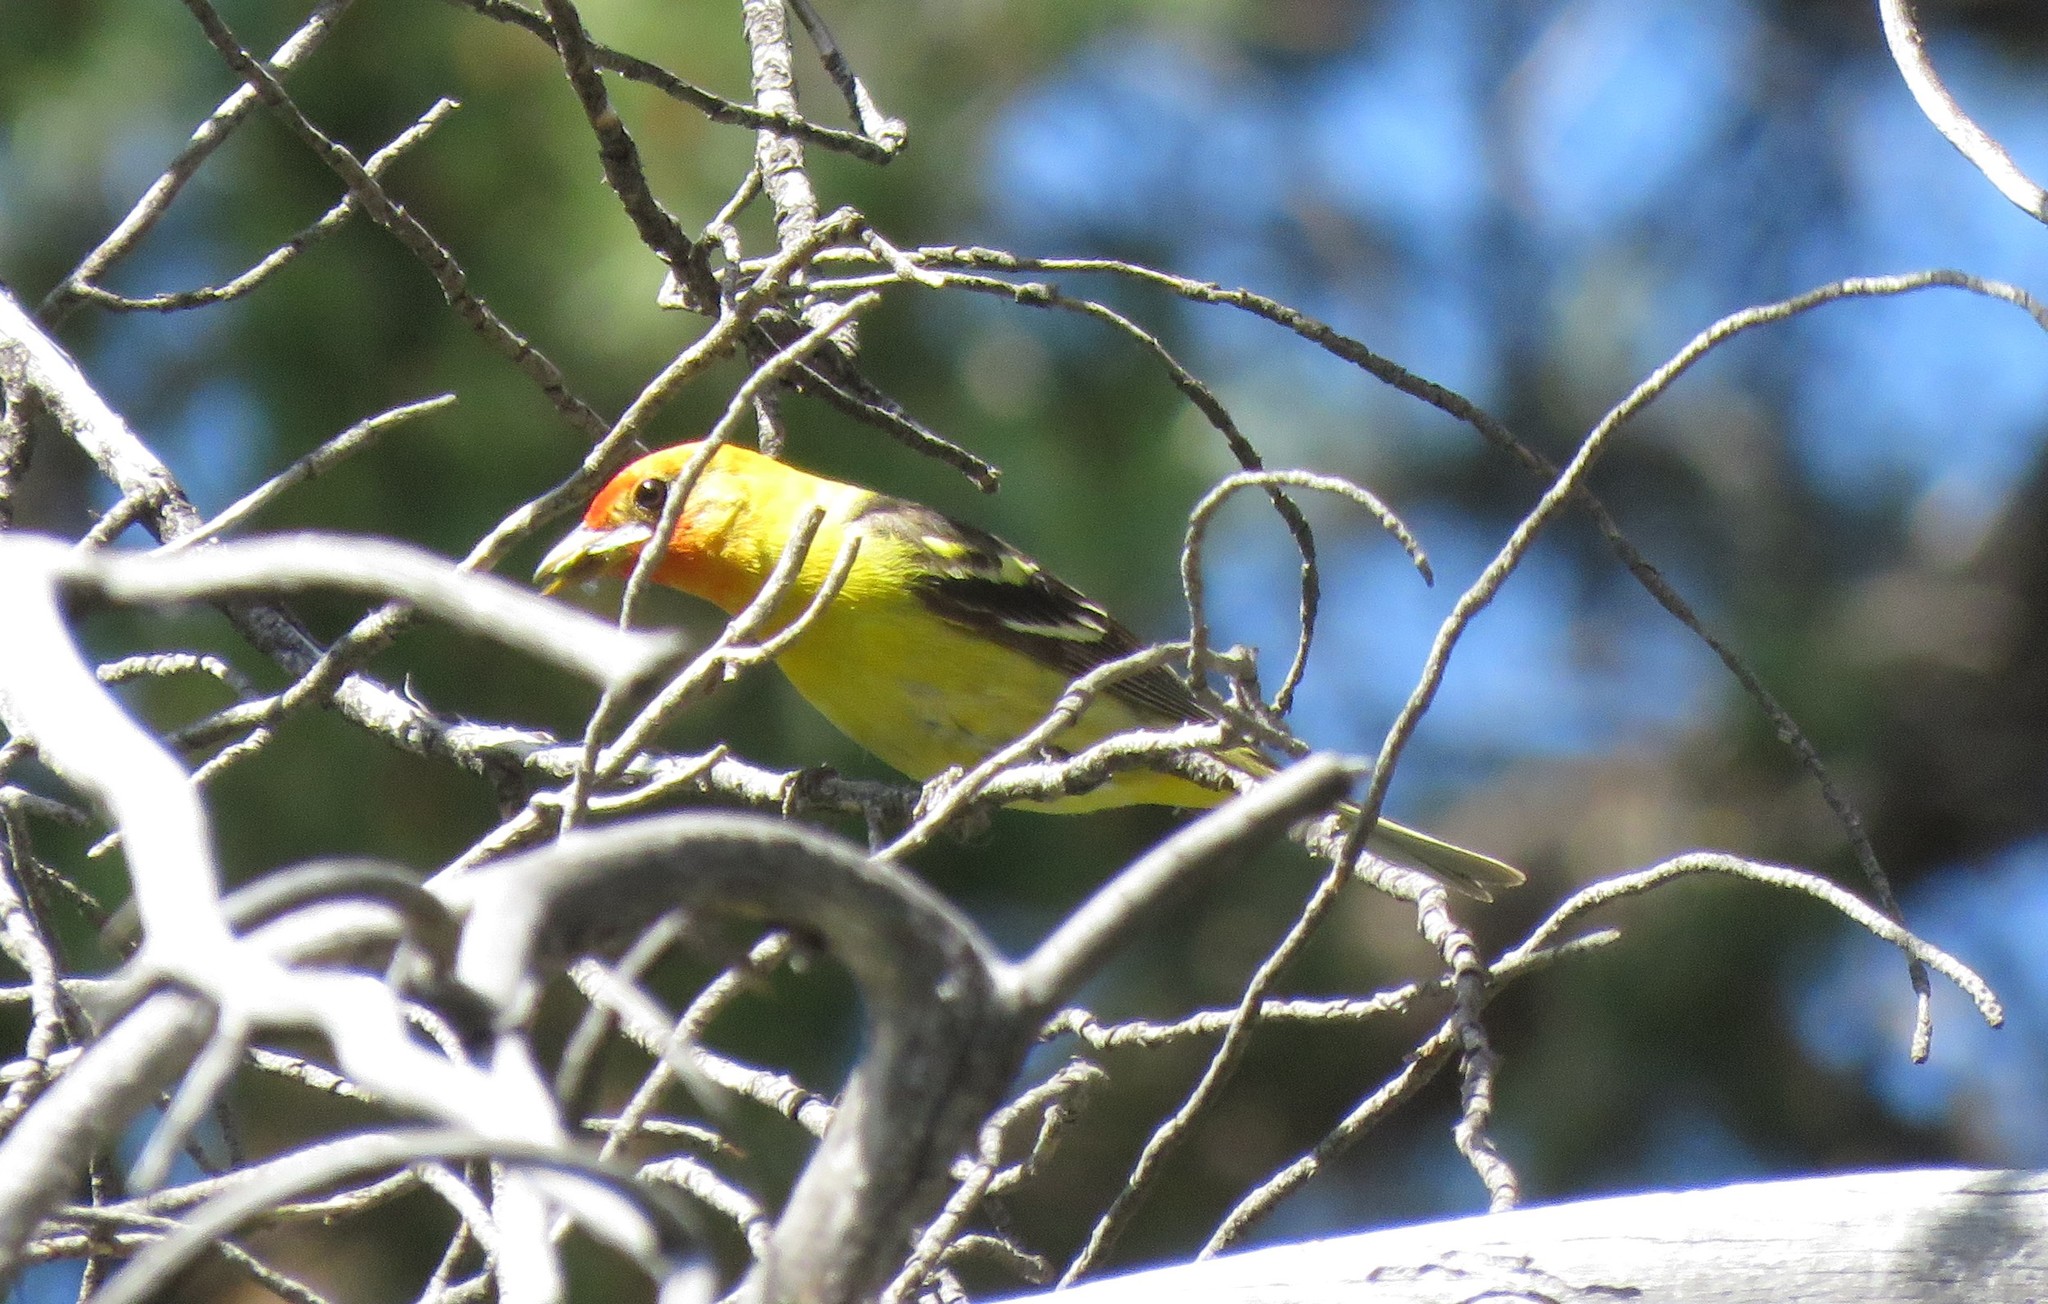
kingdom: Animalia
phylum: Chordata
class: Aves
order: Passeriformes
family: Cardinalidae
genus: Piranga
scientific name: Piranga ludoviciana
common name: Western tanager
